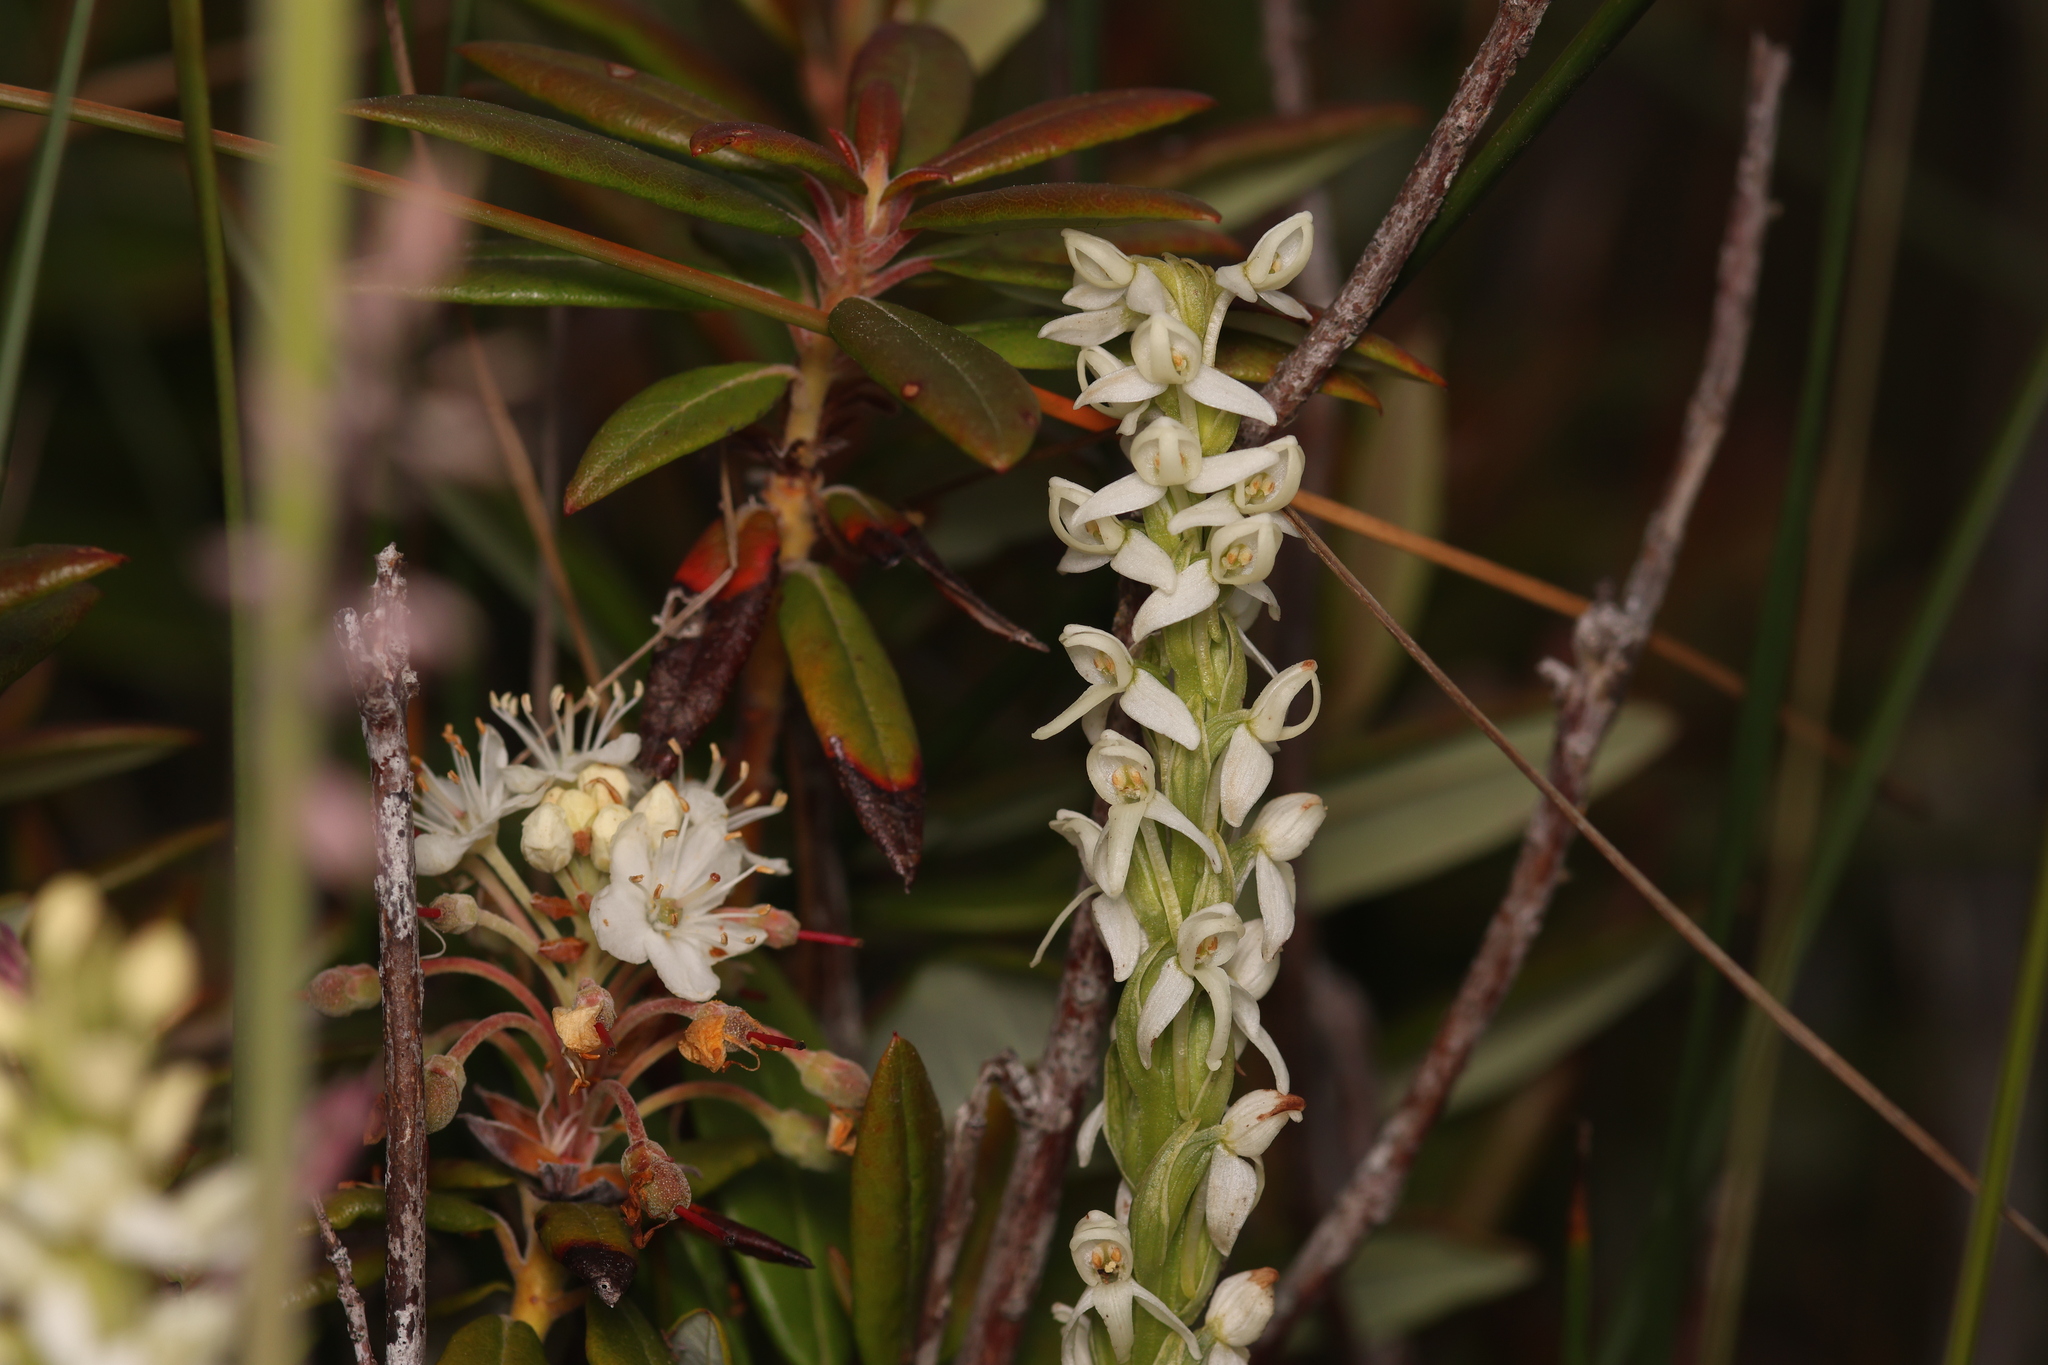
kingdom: Plantae
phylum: Tracheophyta
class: Liliopsida
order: Asparagales
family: Orchidaceae
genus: Platanthera
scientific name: Platanthera dilatata
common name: Bog candles
